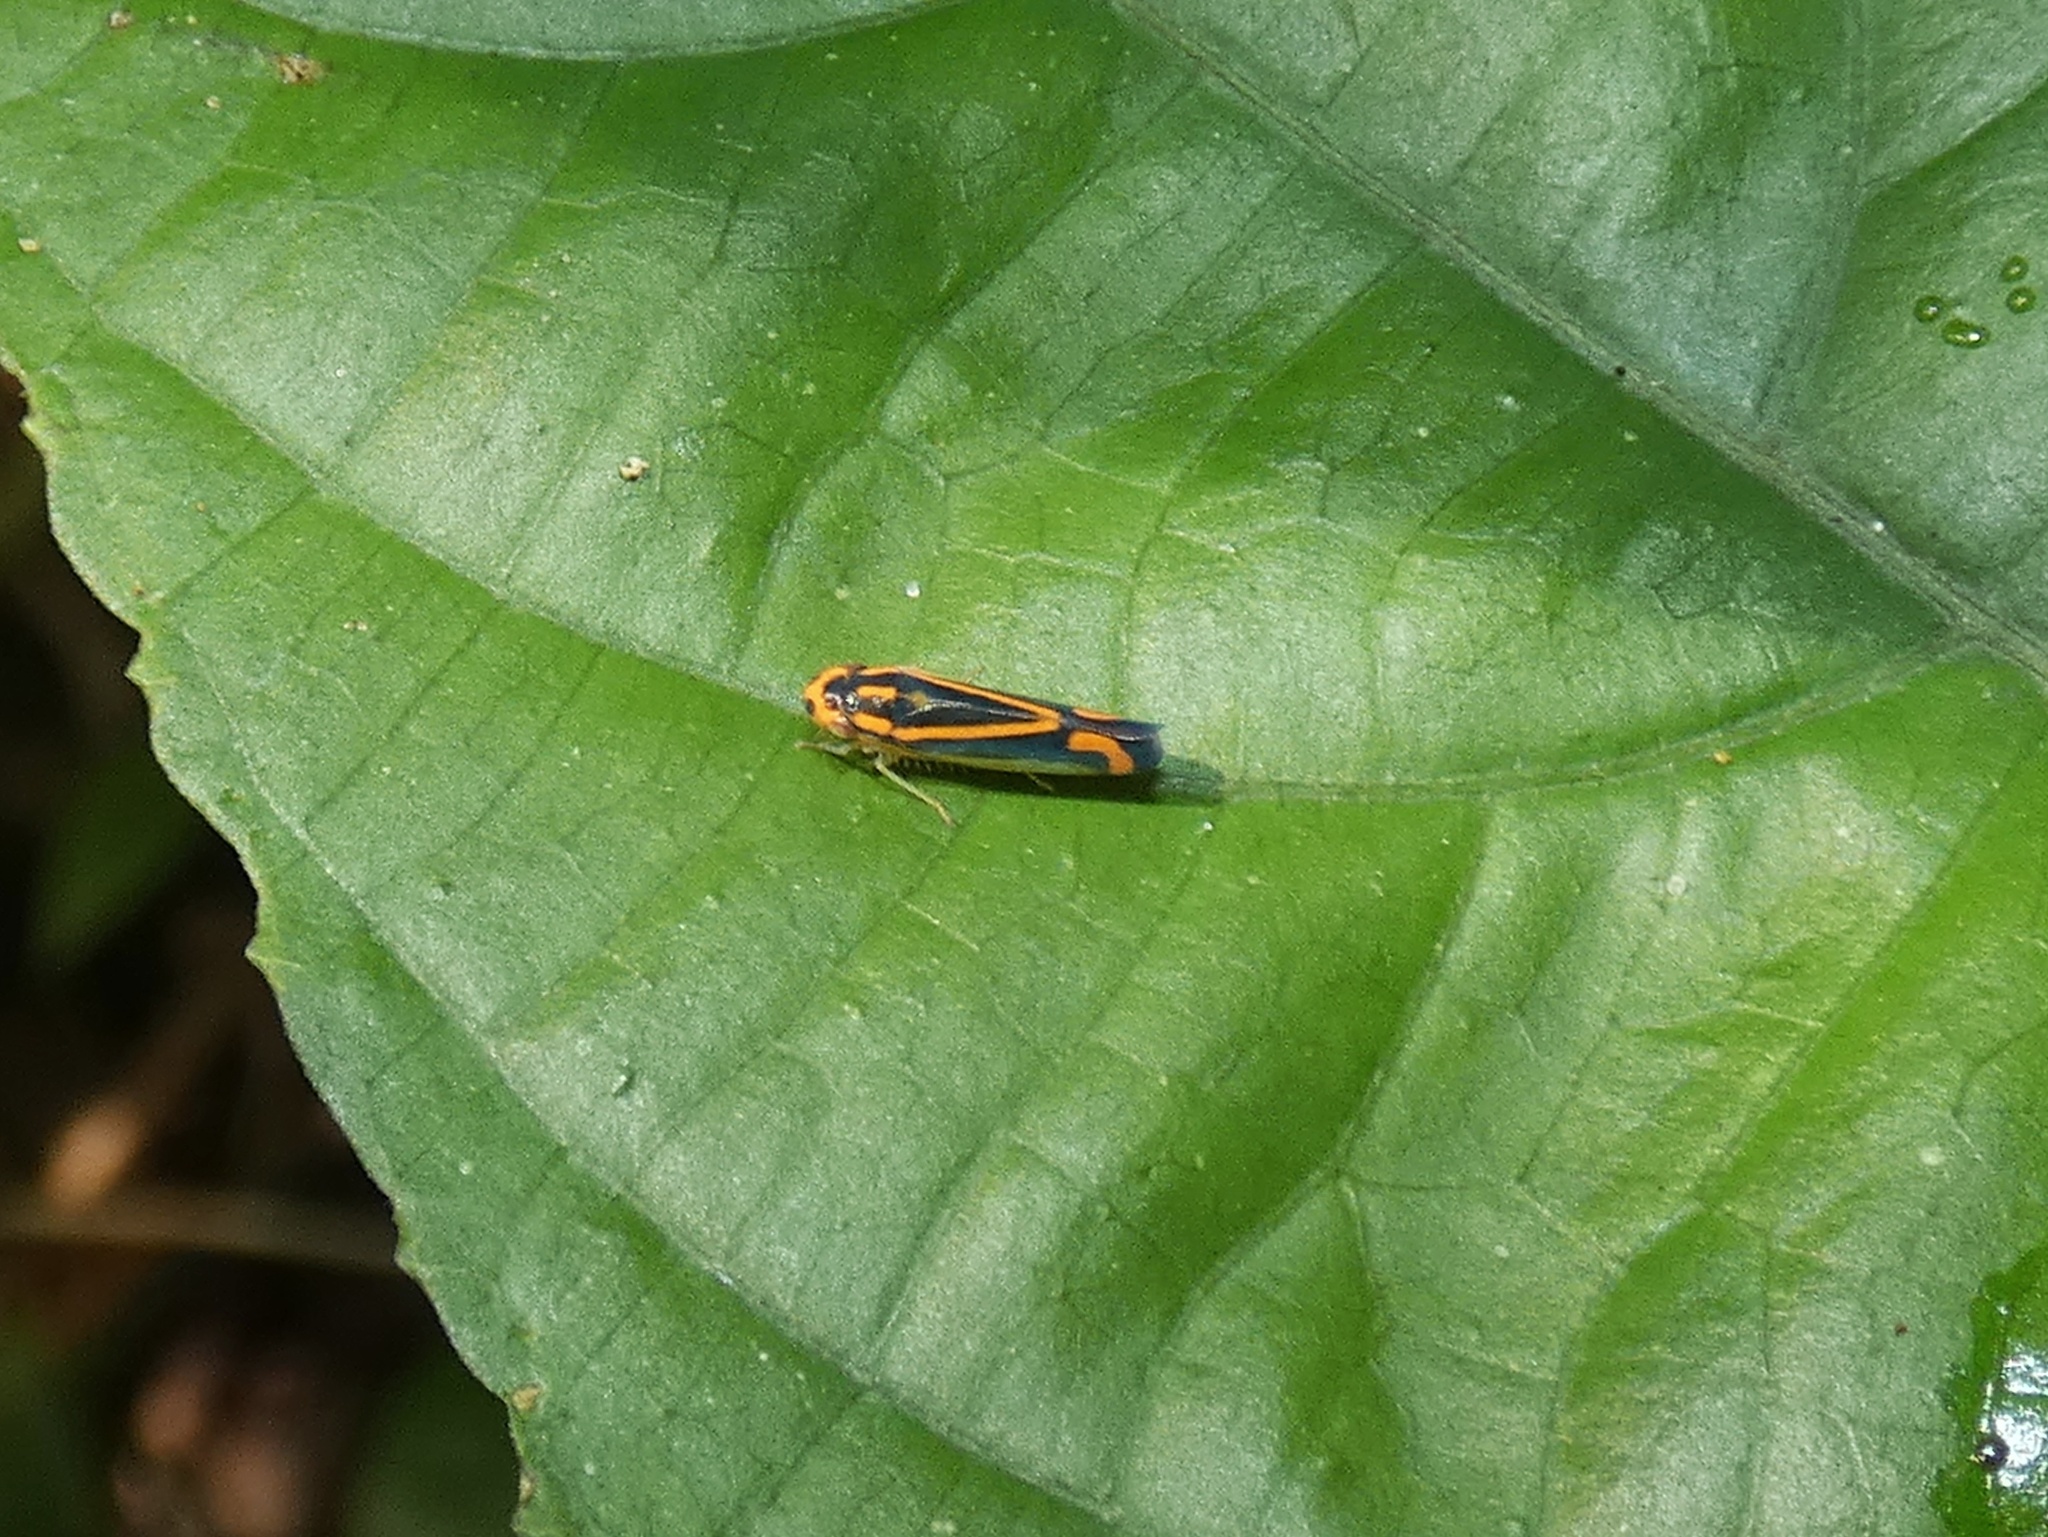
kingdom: Animalia
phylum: Arthropoda
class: Insecta
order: Hemiptera
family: Cicadellidae
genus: Soosiulus
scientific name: Soosiulus salutaris
